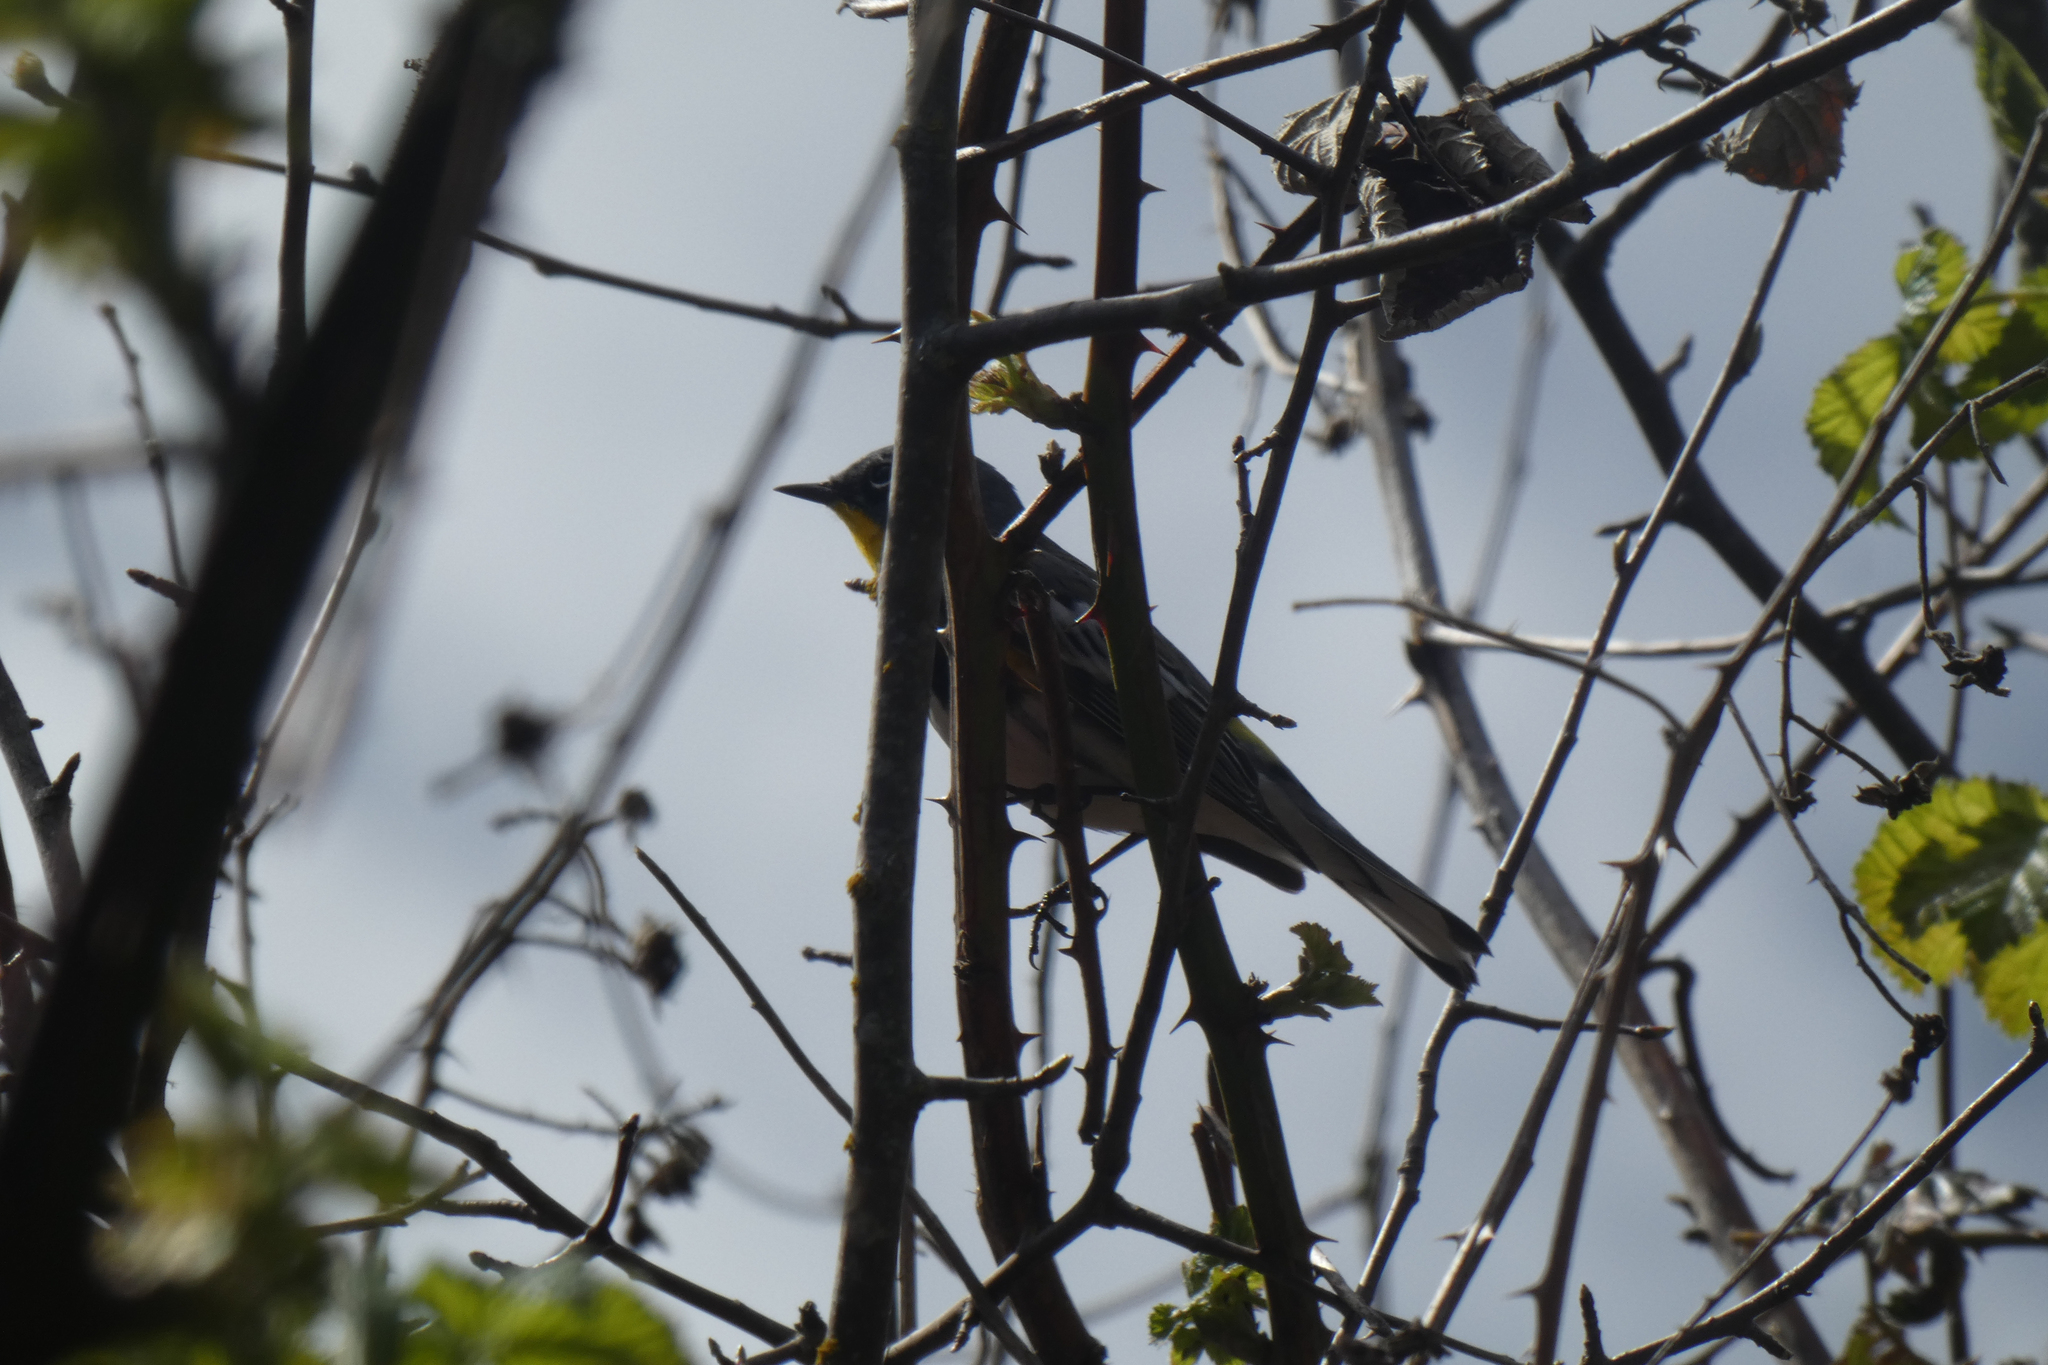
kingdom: Animalia
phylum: Chordata
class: Aves
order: Passeriformes
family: Parulidae
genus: Setophaga
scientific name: Setophaga coronata
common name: Myrtle warbler
